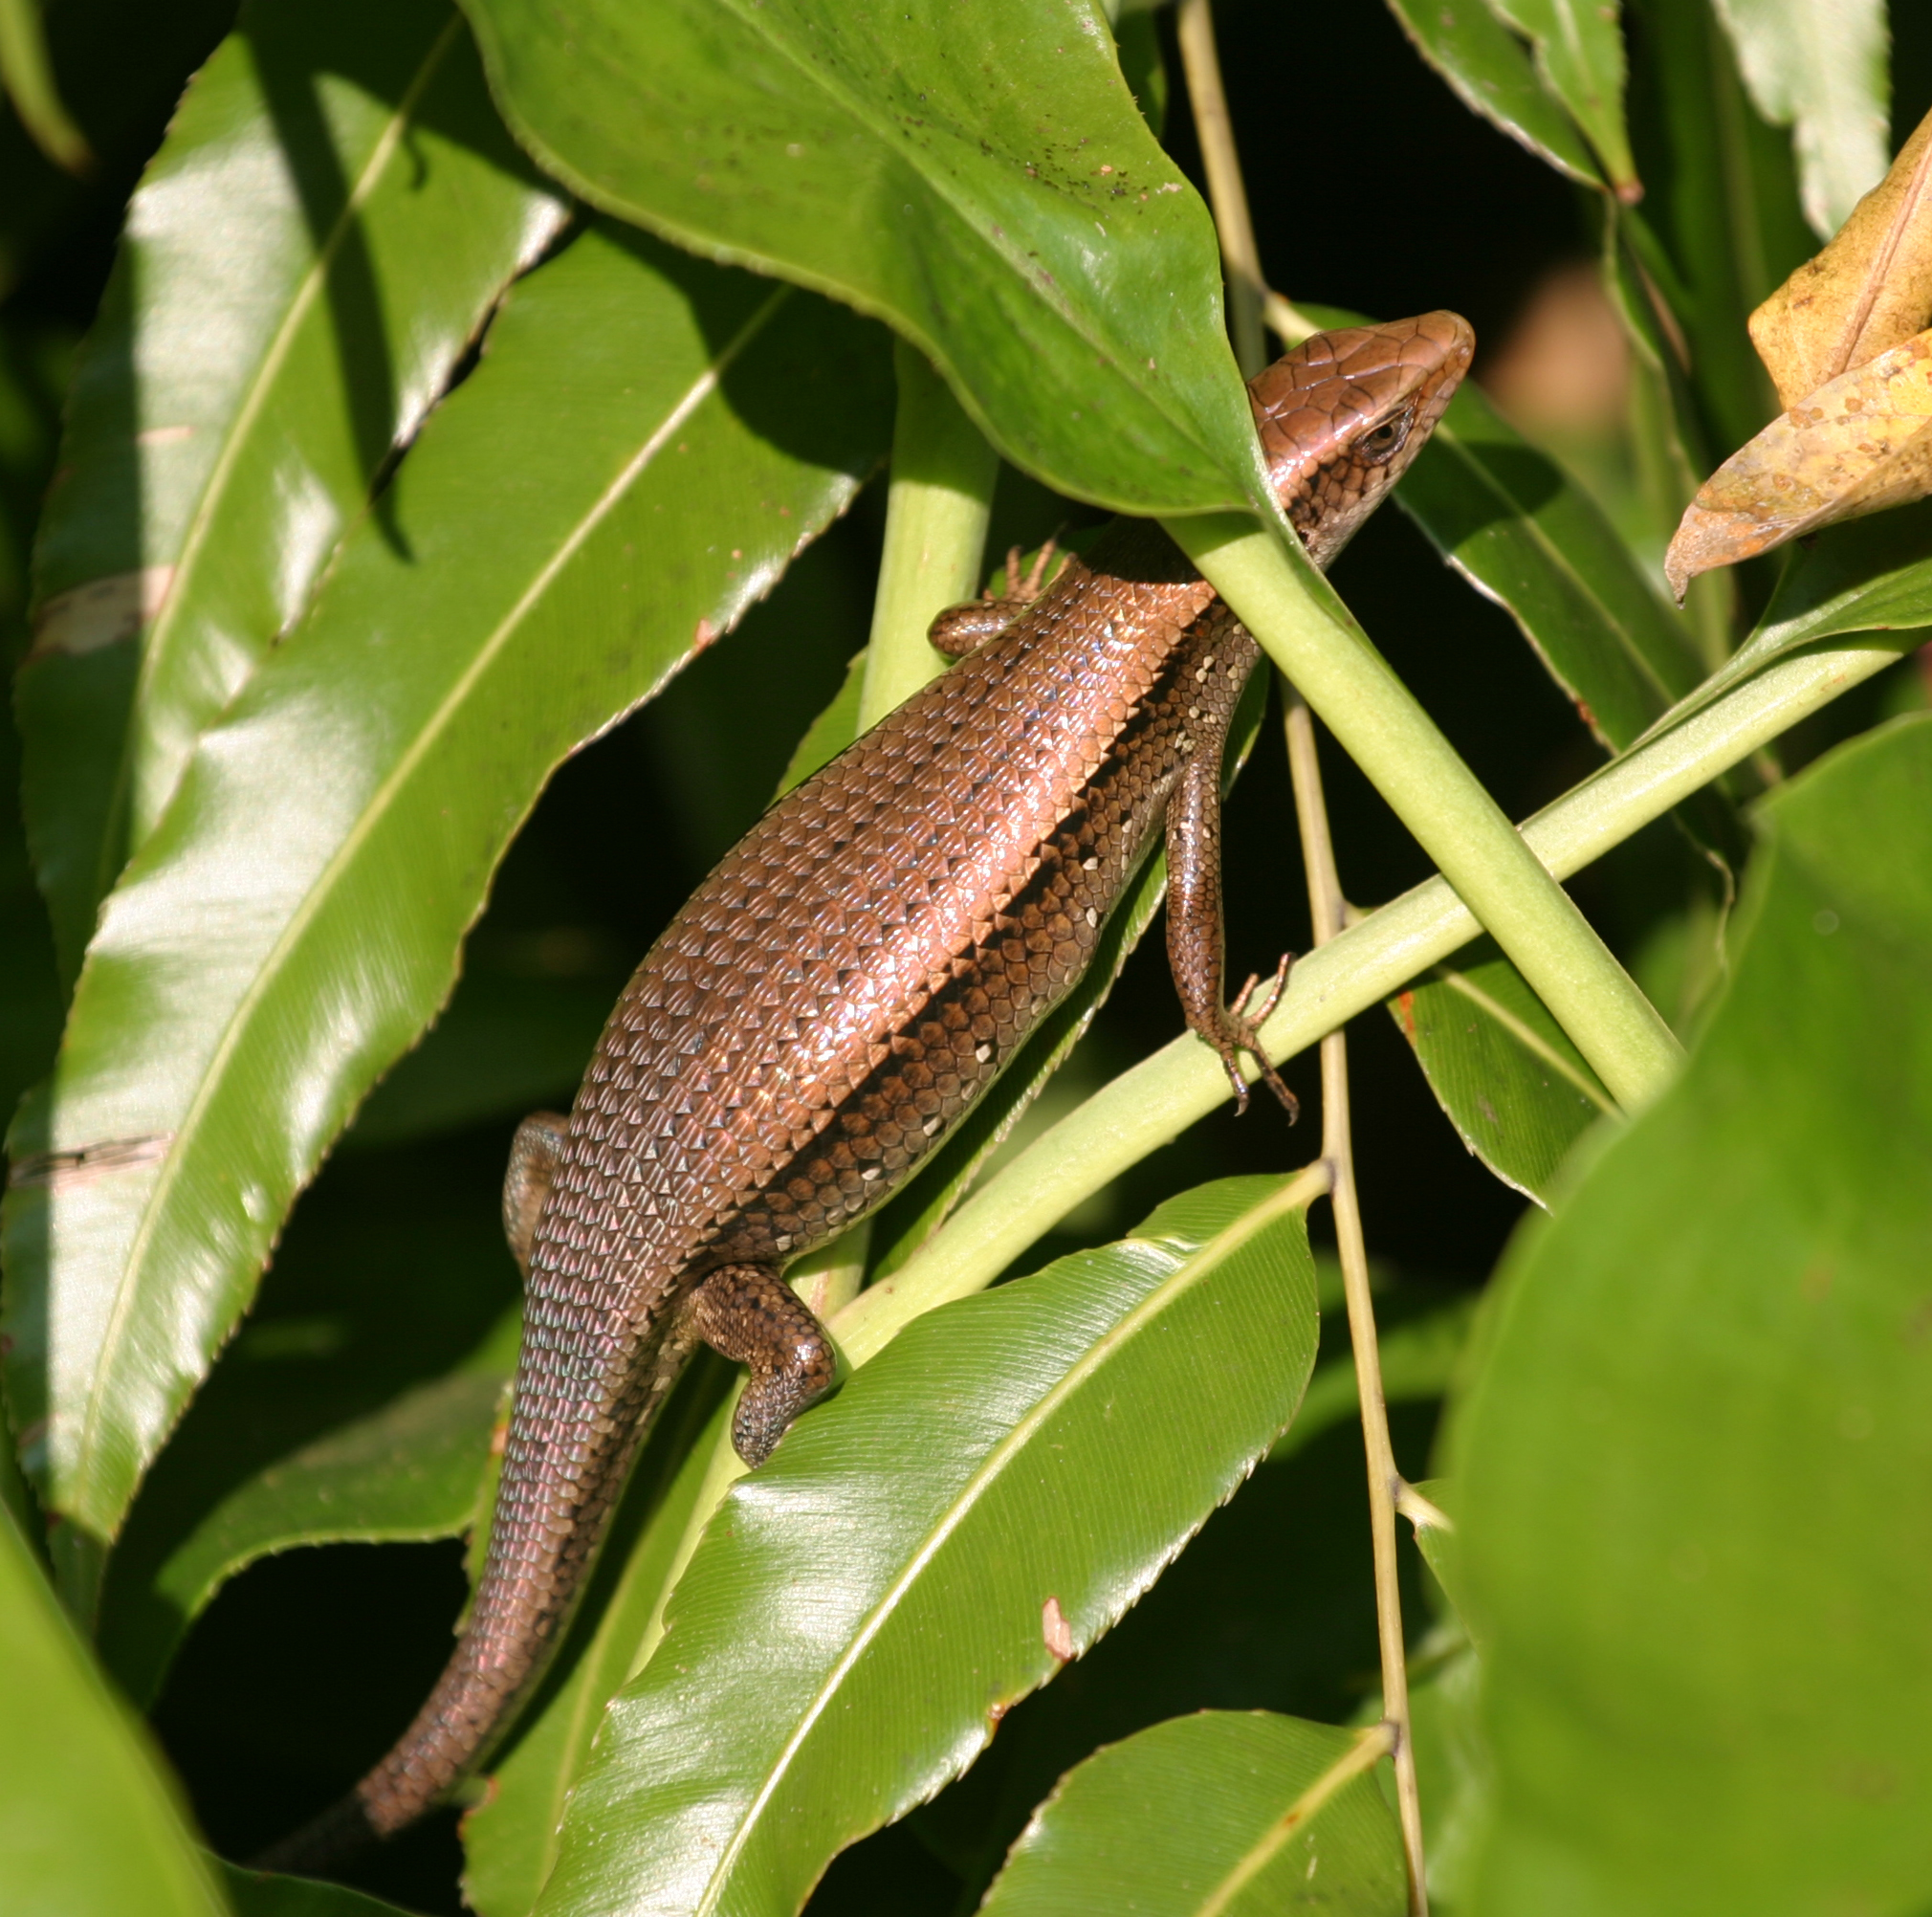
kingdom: Animalia
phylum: Chordata
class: Squamata
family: Scincidae
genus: Eutropis
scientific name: Eutropis multifasciata
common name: Common mabuya
